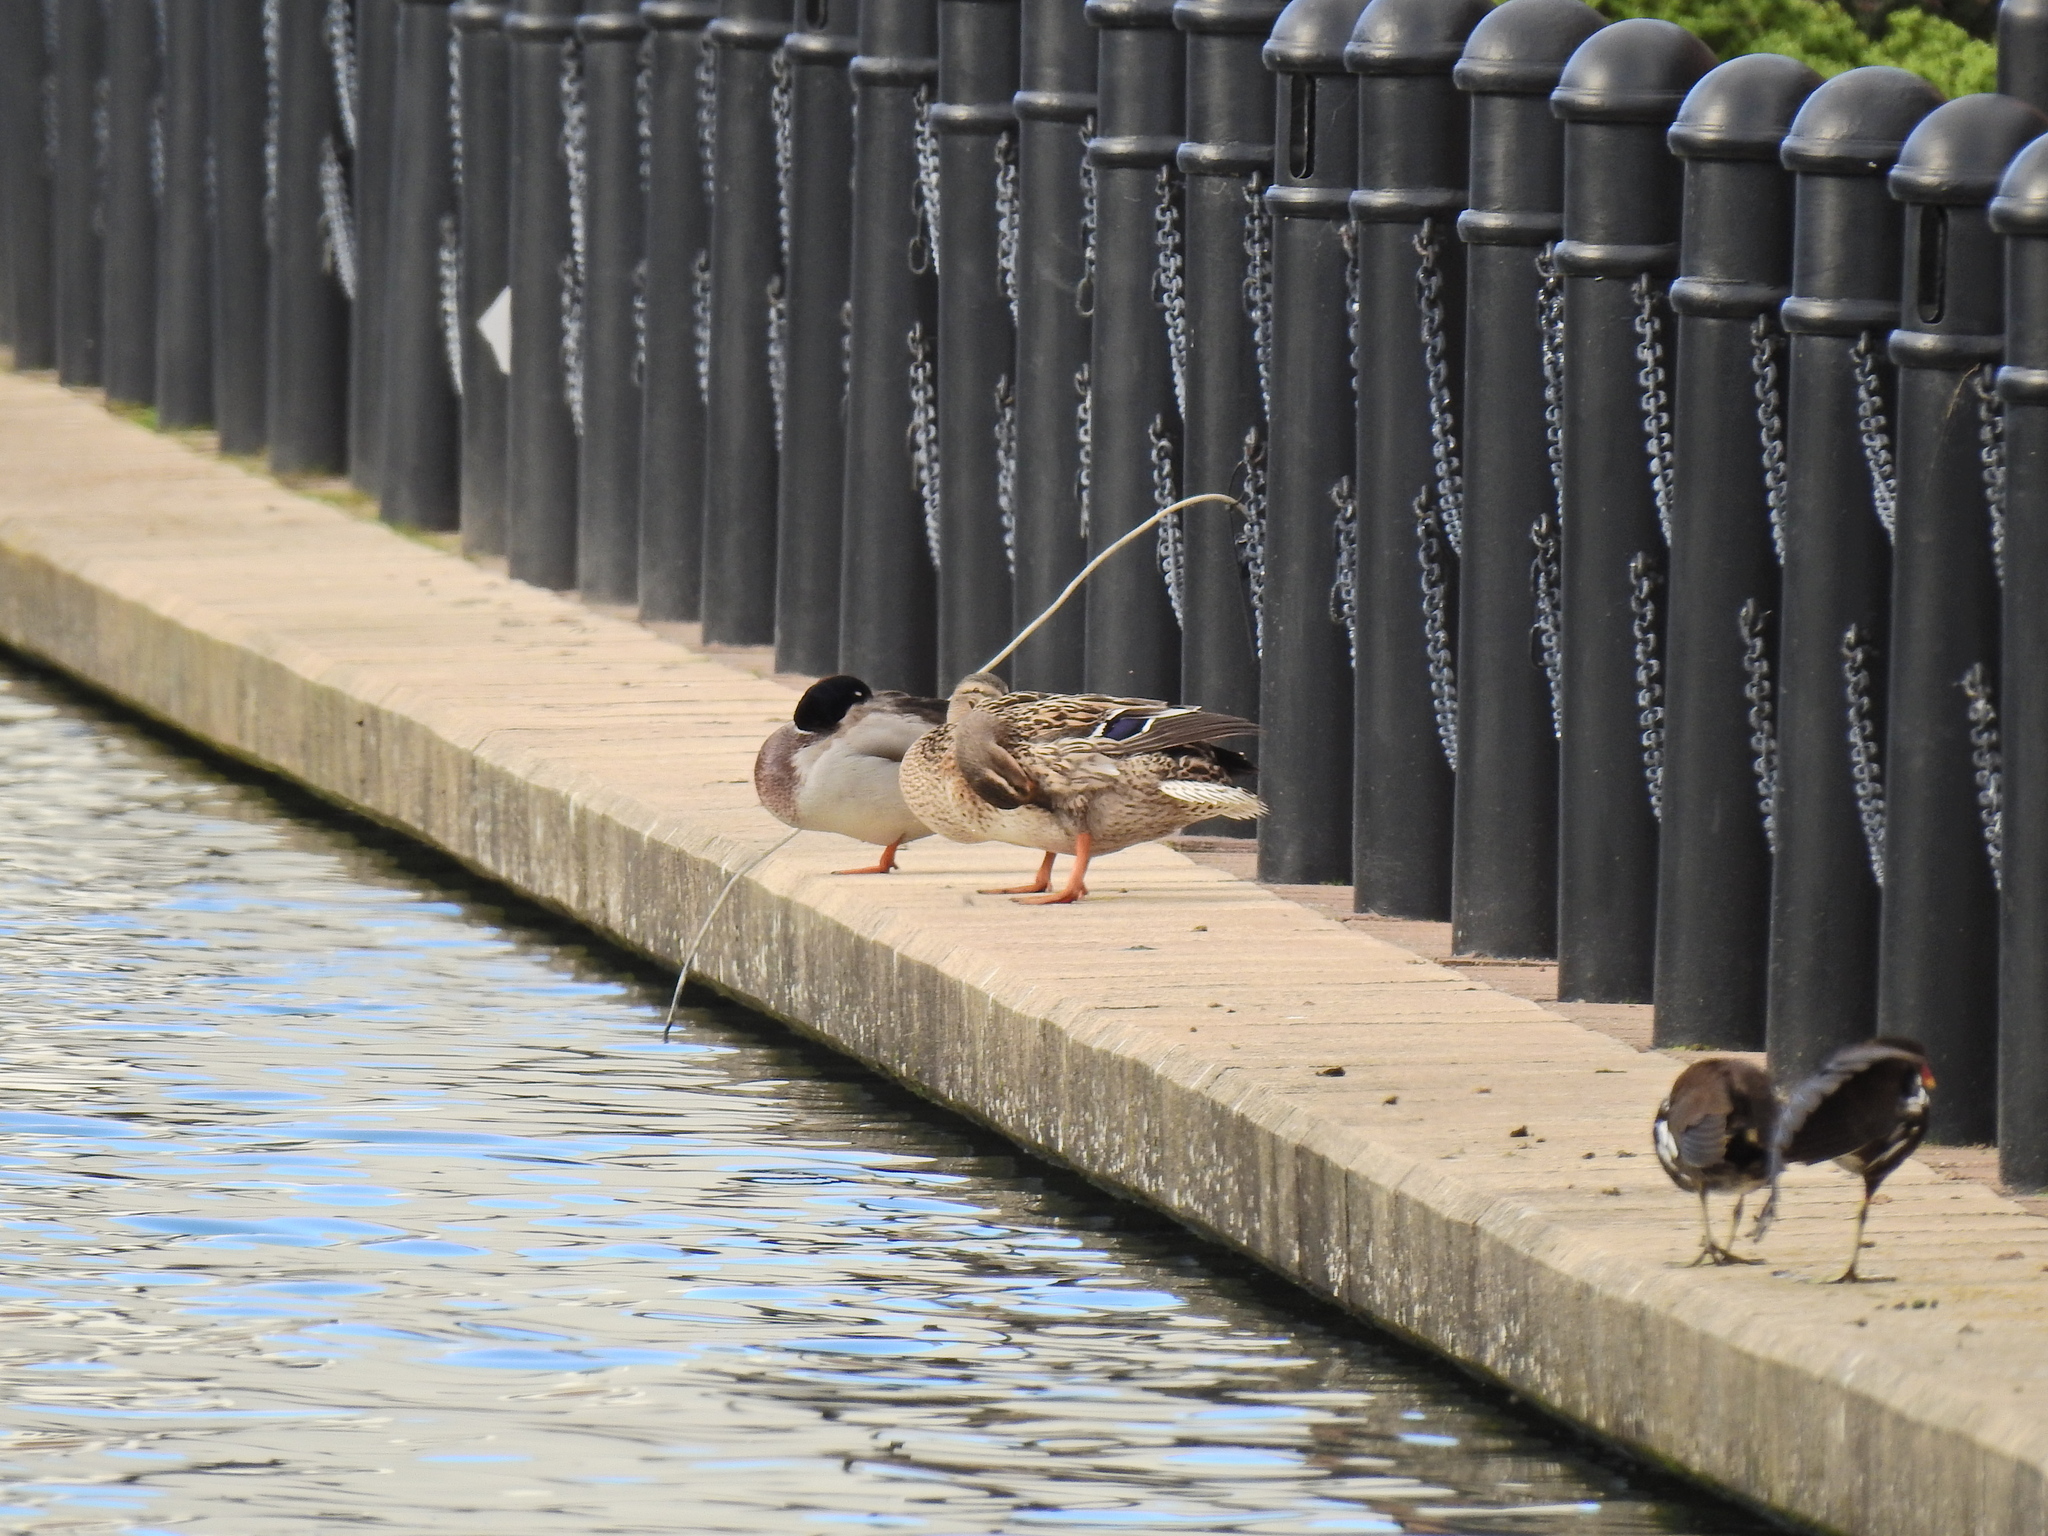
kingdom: Animalia
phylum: Chordata
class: Aves
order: Anseriformes
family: Anatidae
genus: Anas
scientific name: Anas platyrhynchos
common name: Mallard
